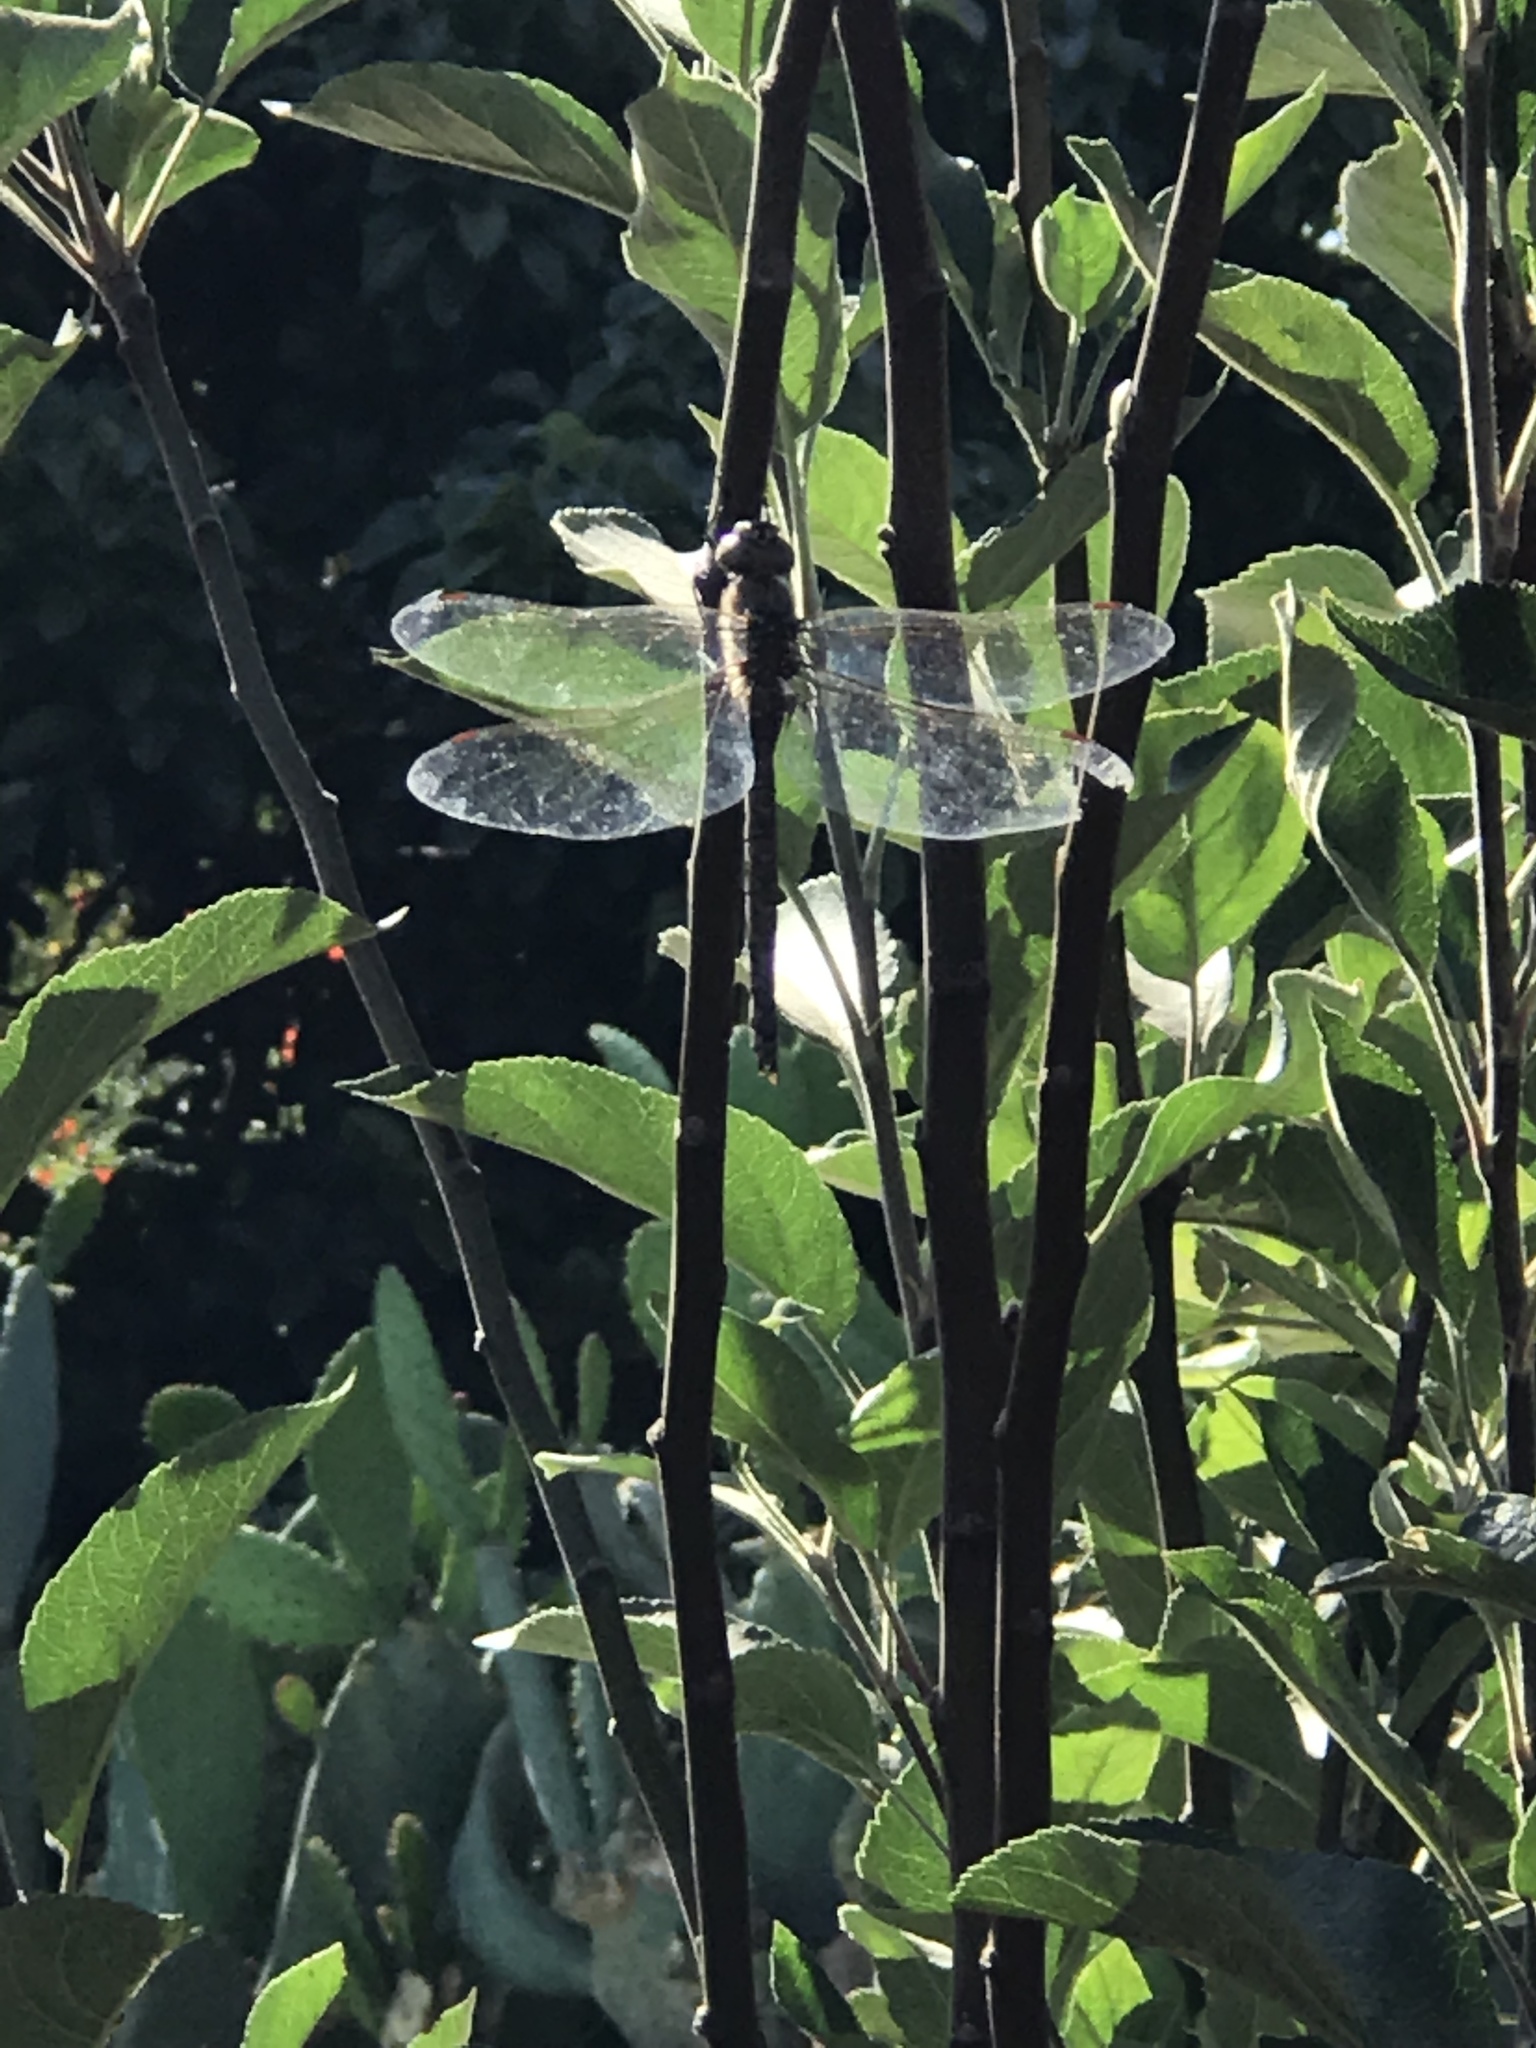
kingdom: Animalia
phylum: Arthropoda
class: Insecta
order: Odonata
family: Aeshnidae
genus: Anax
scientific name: Anax junius
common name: Common green darner
